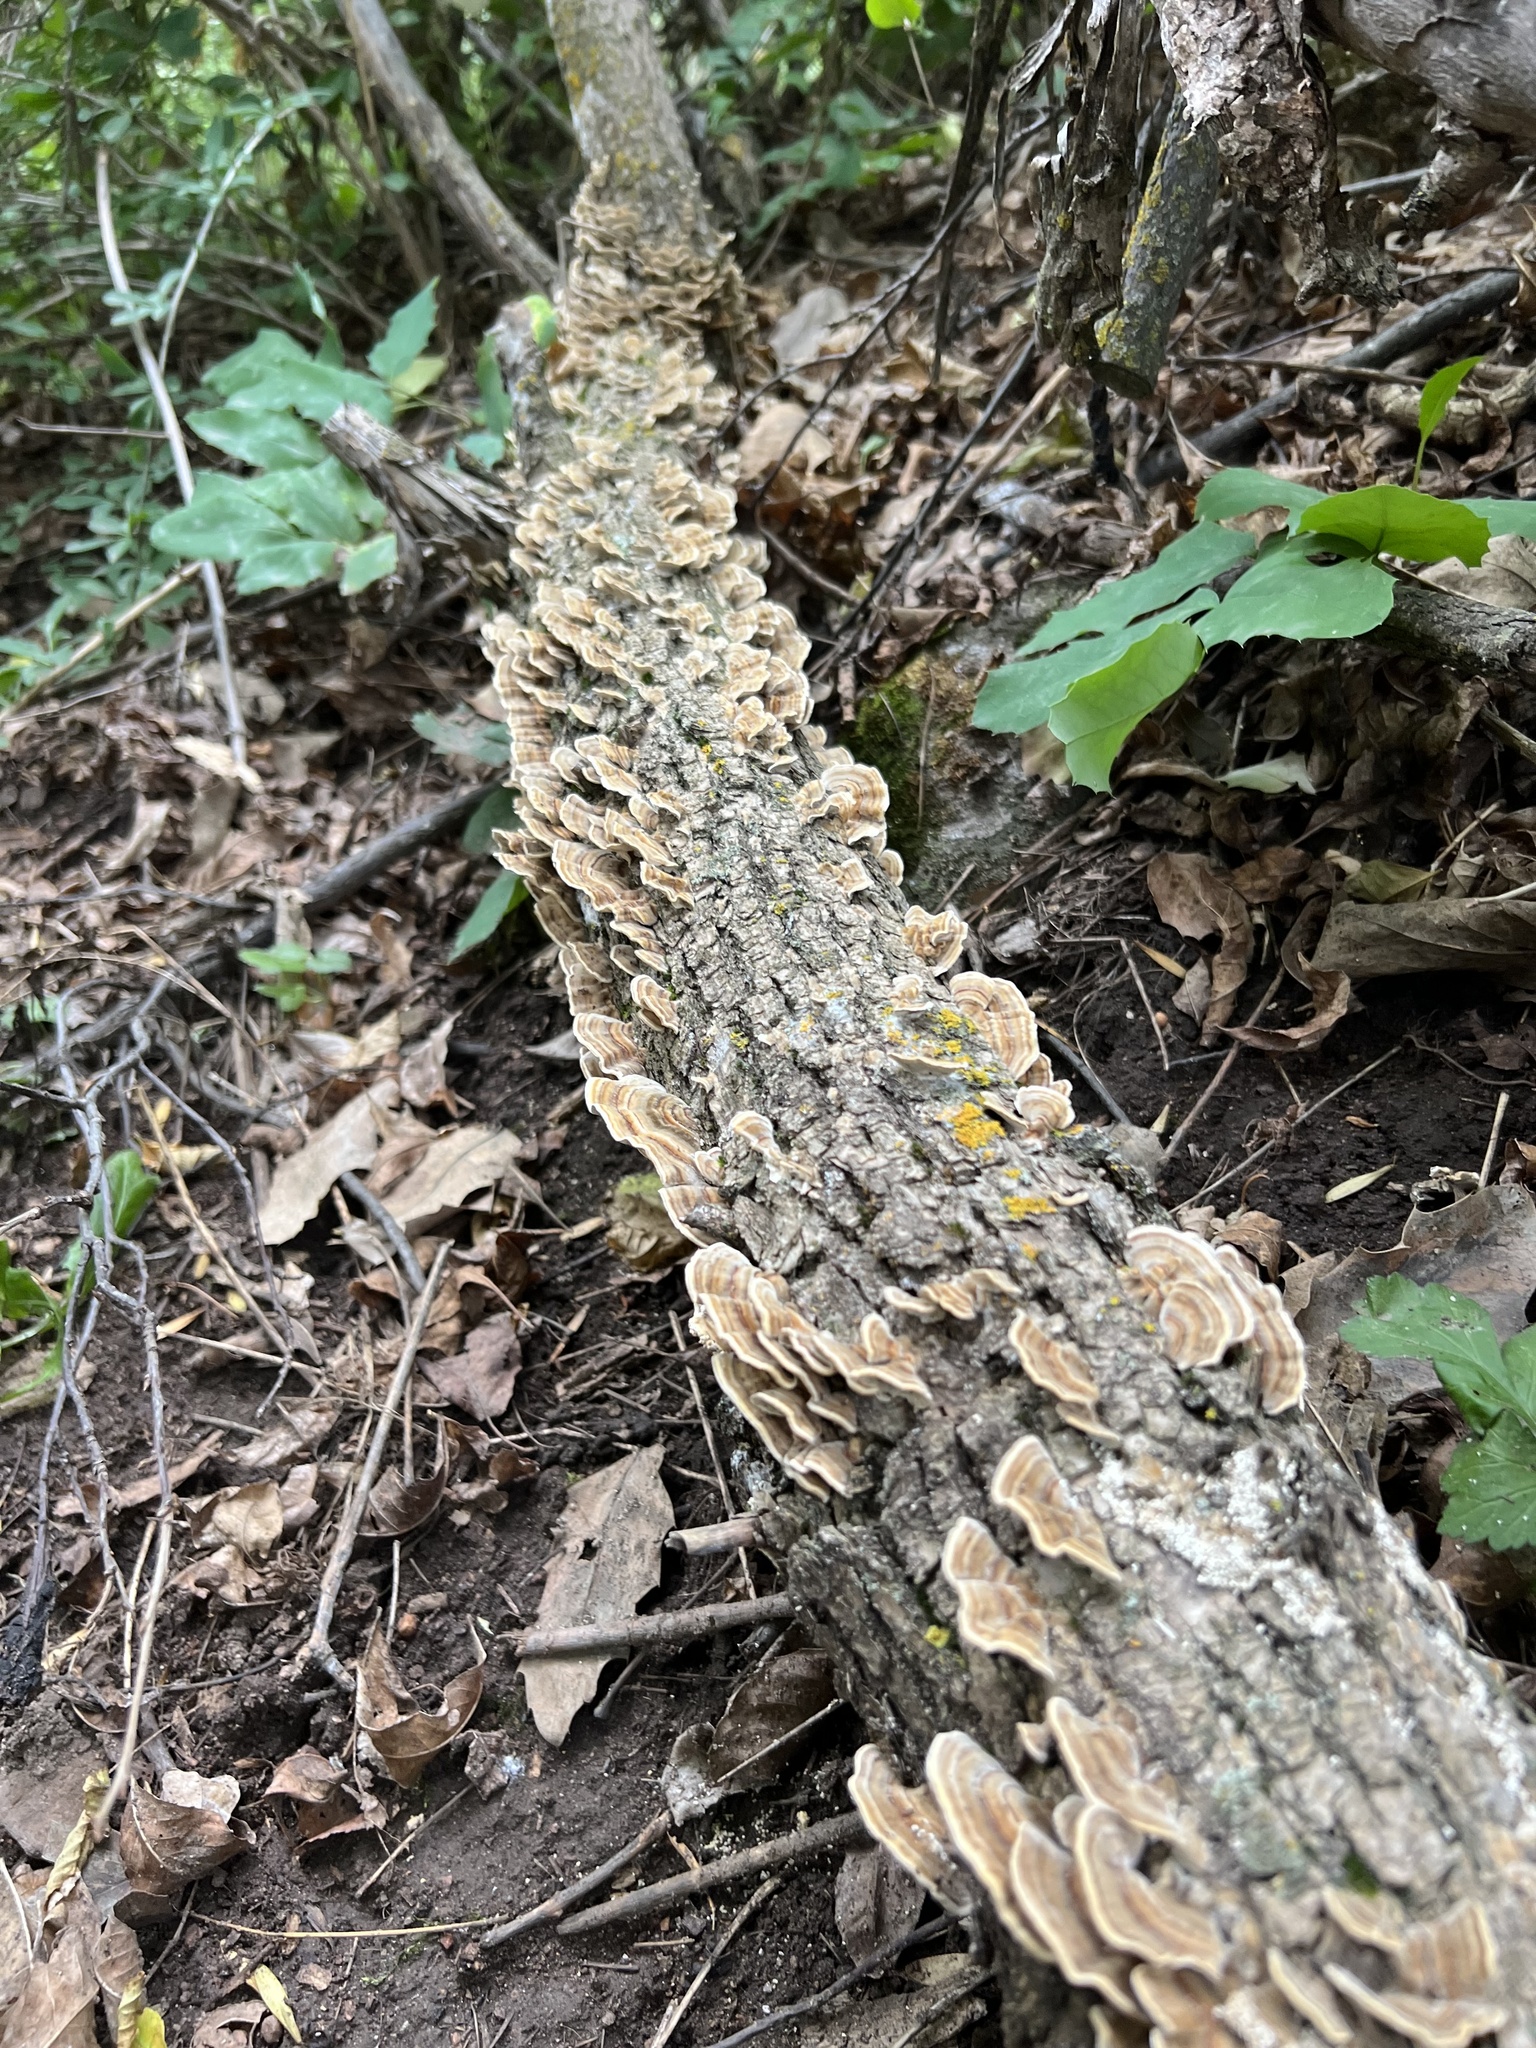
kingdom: Fungi
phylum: Basidiomycota
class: Agaricomycetes
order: Polyporales
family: Polyporaceae
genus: Trametes
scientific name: Trametes versicolor
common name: Turkeytail
